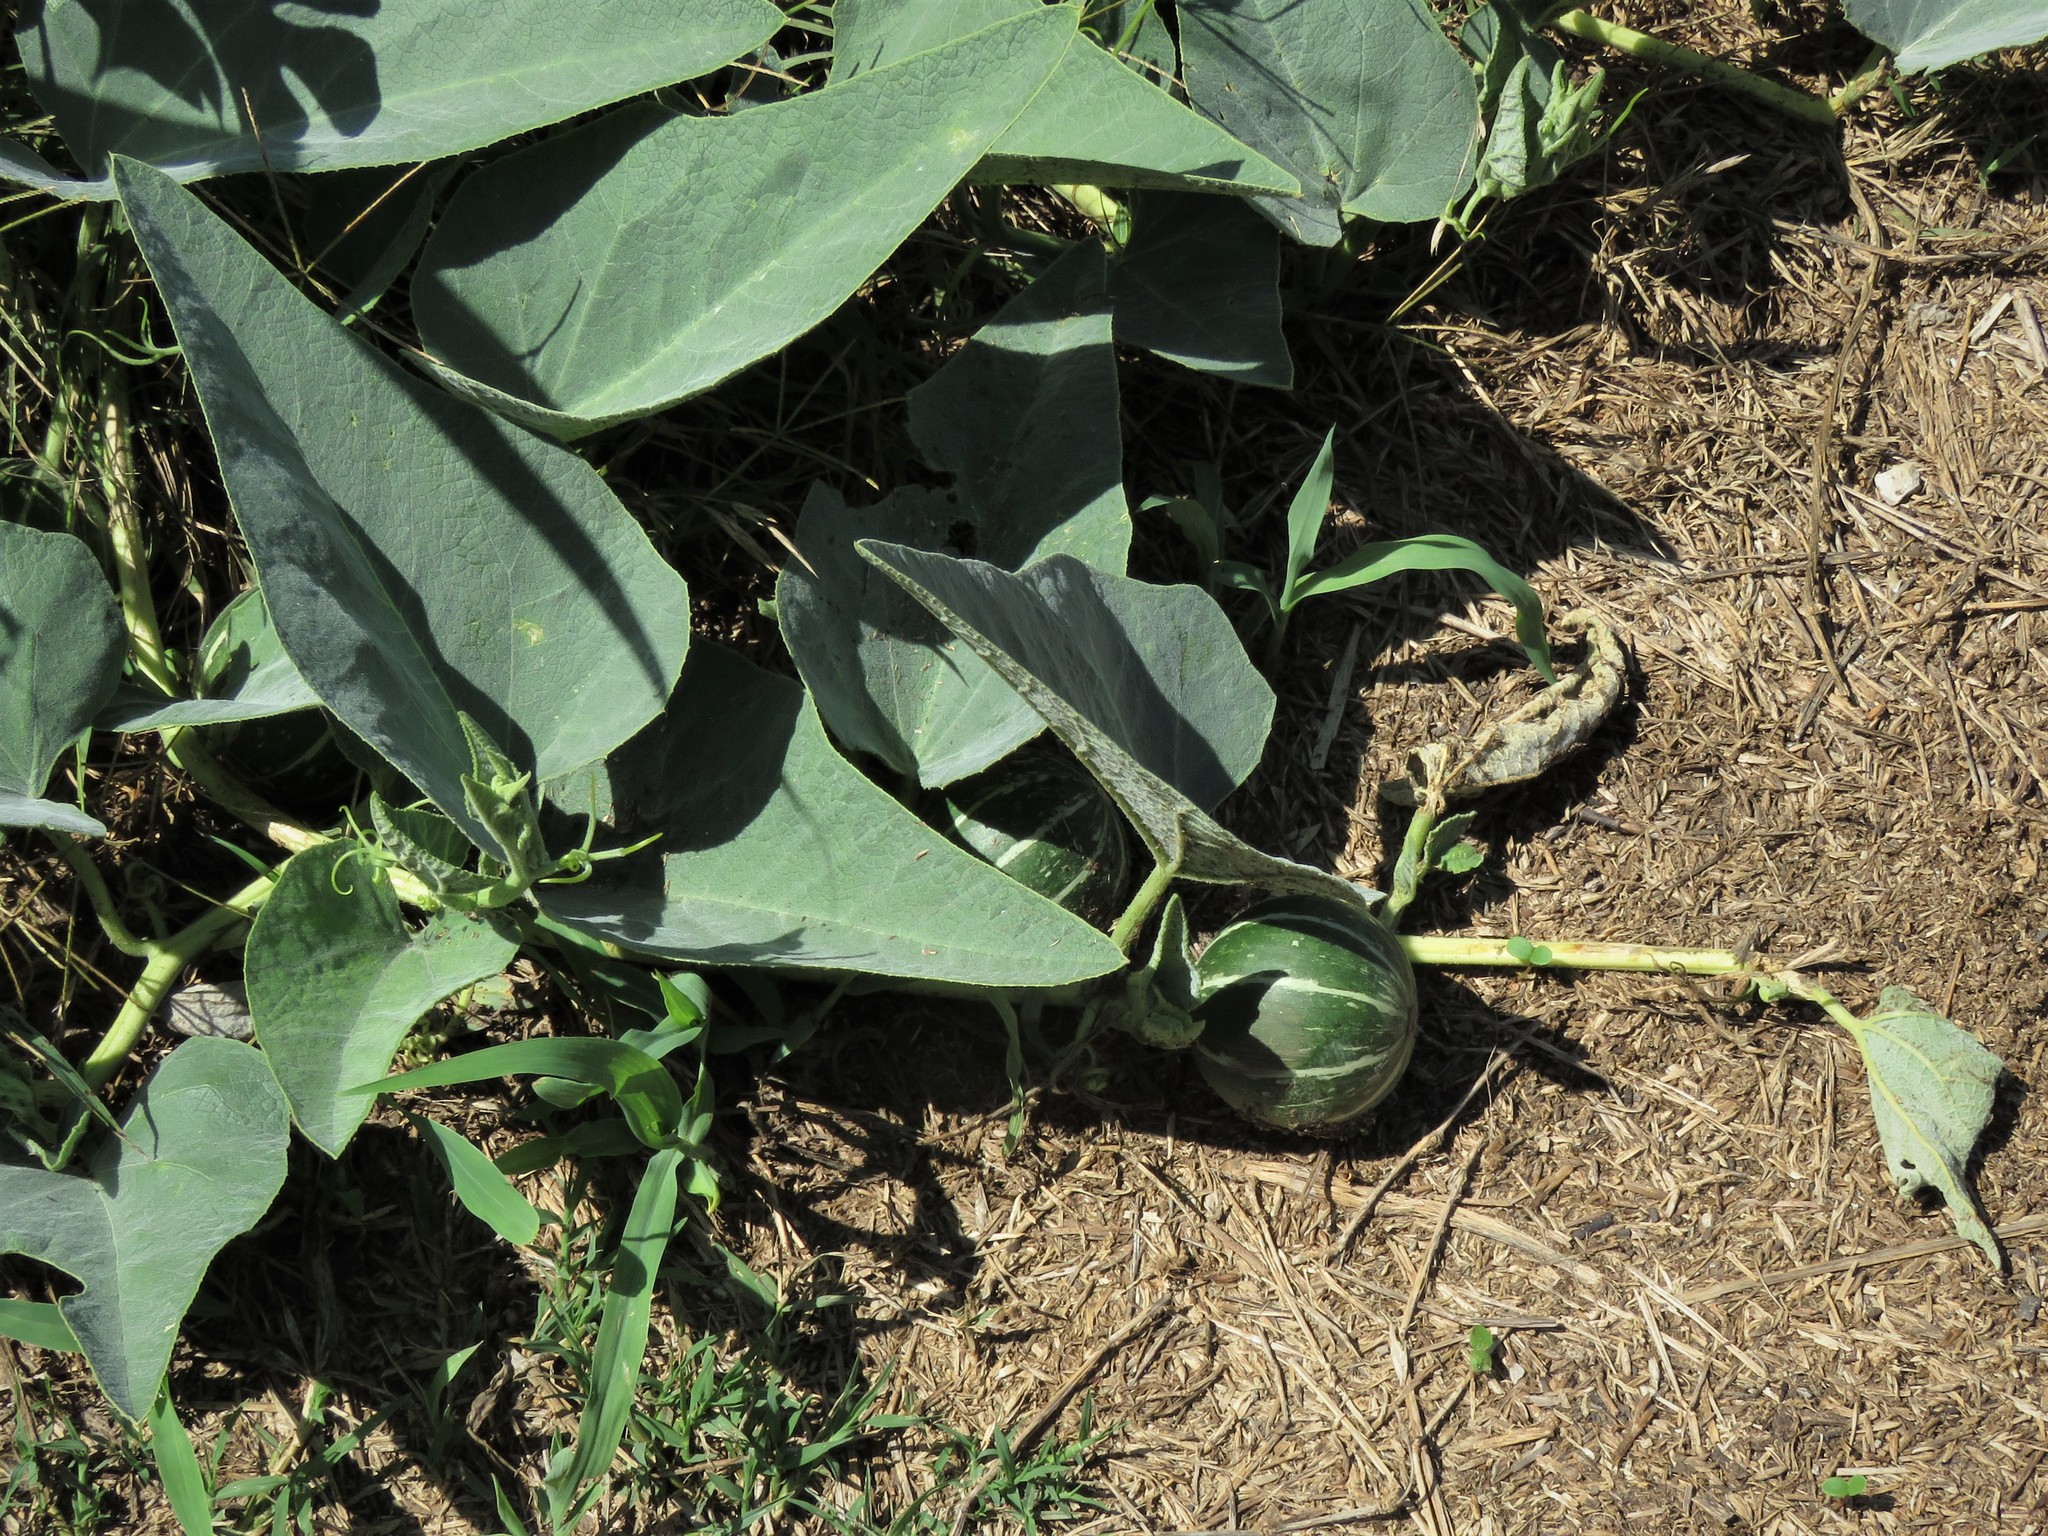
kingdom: Plantae
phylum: Tracheophyta
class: Magnoliopsida
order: Cucurbitales
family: Cucurbitaceae
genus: Cucurbita
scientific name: Cucurbita foetidissima
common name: Buffalo gourd
